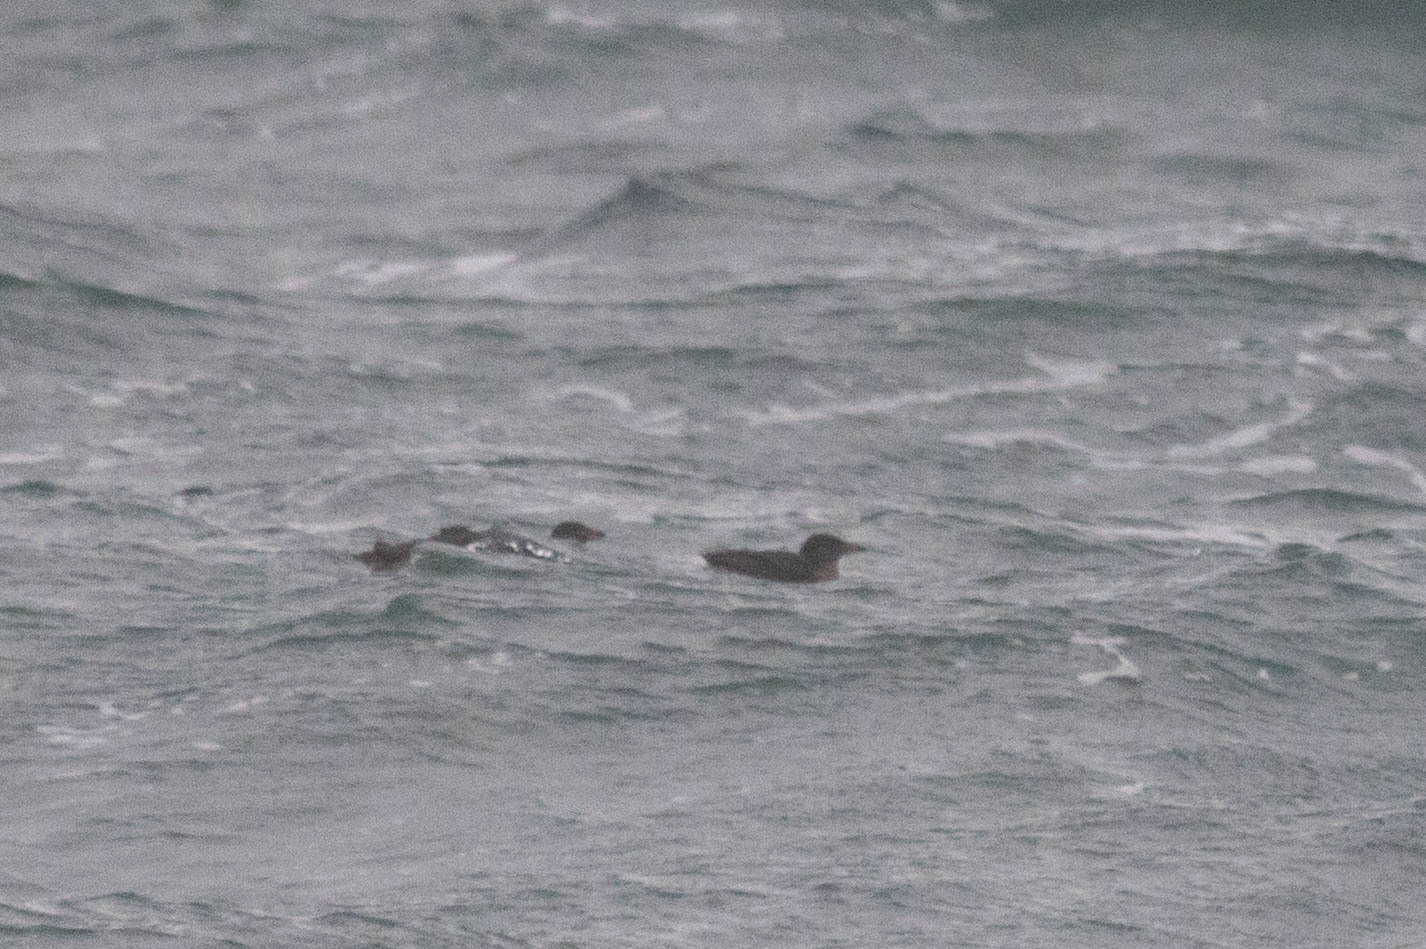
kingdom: Animalia
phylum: Chordata
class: Aves
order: Charadriiformes
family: Alcidae
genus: Cerorhinca
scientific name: Cerorhinca monocerata
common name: Rhinoceros auklet
